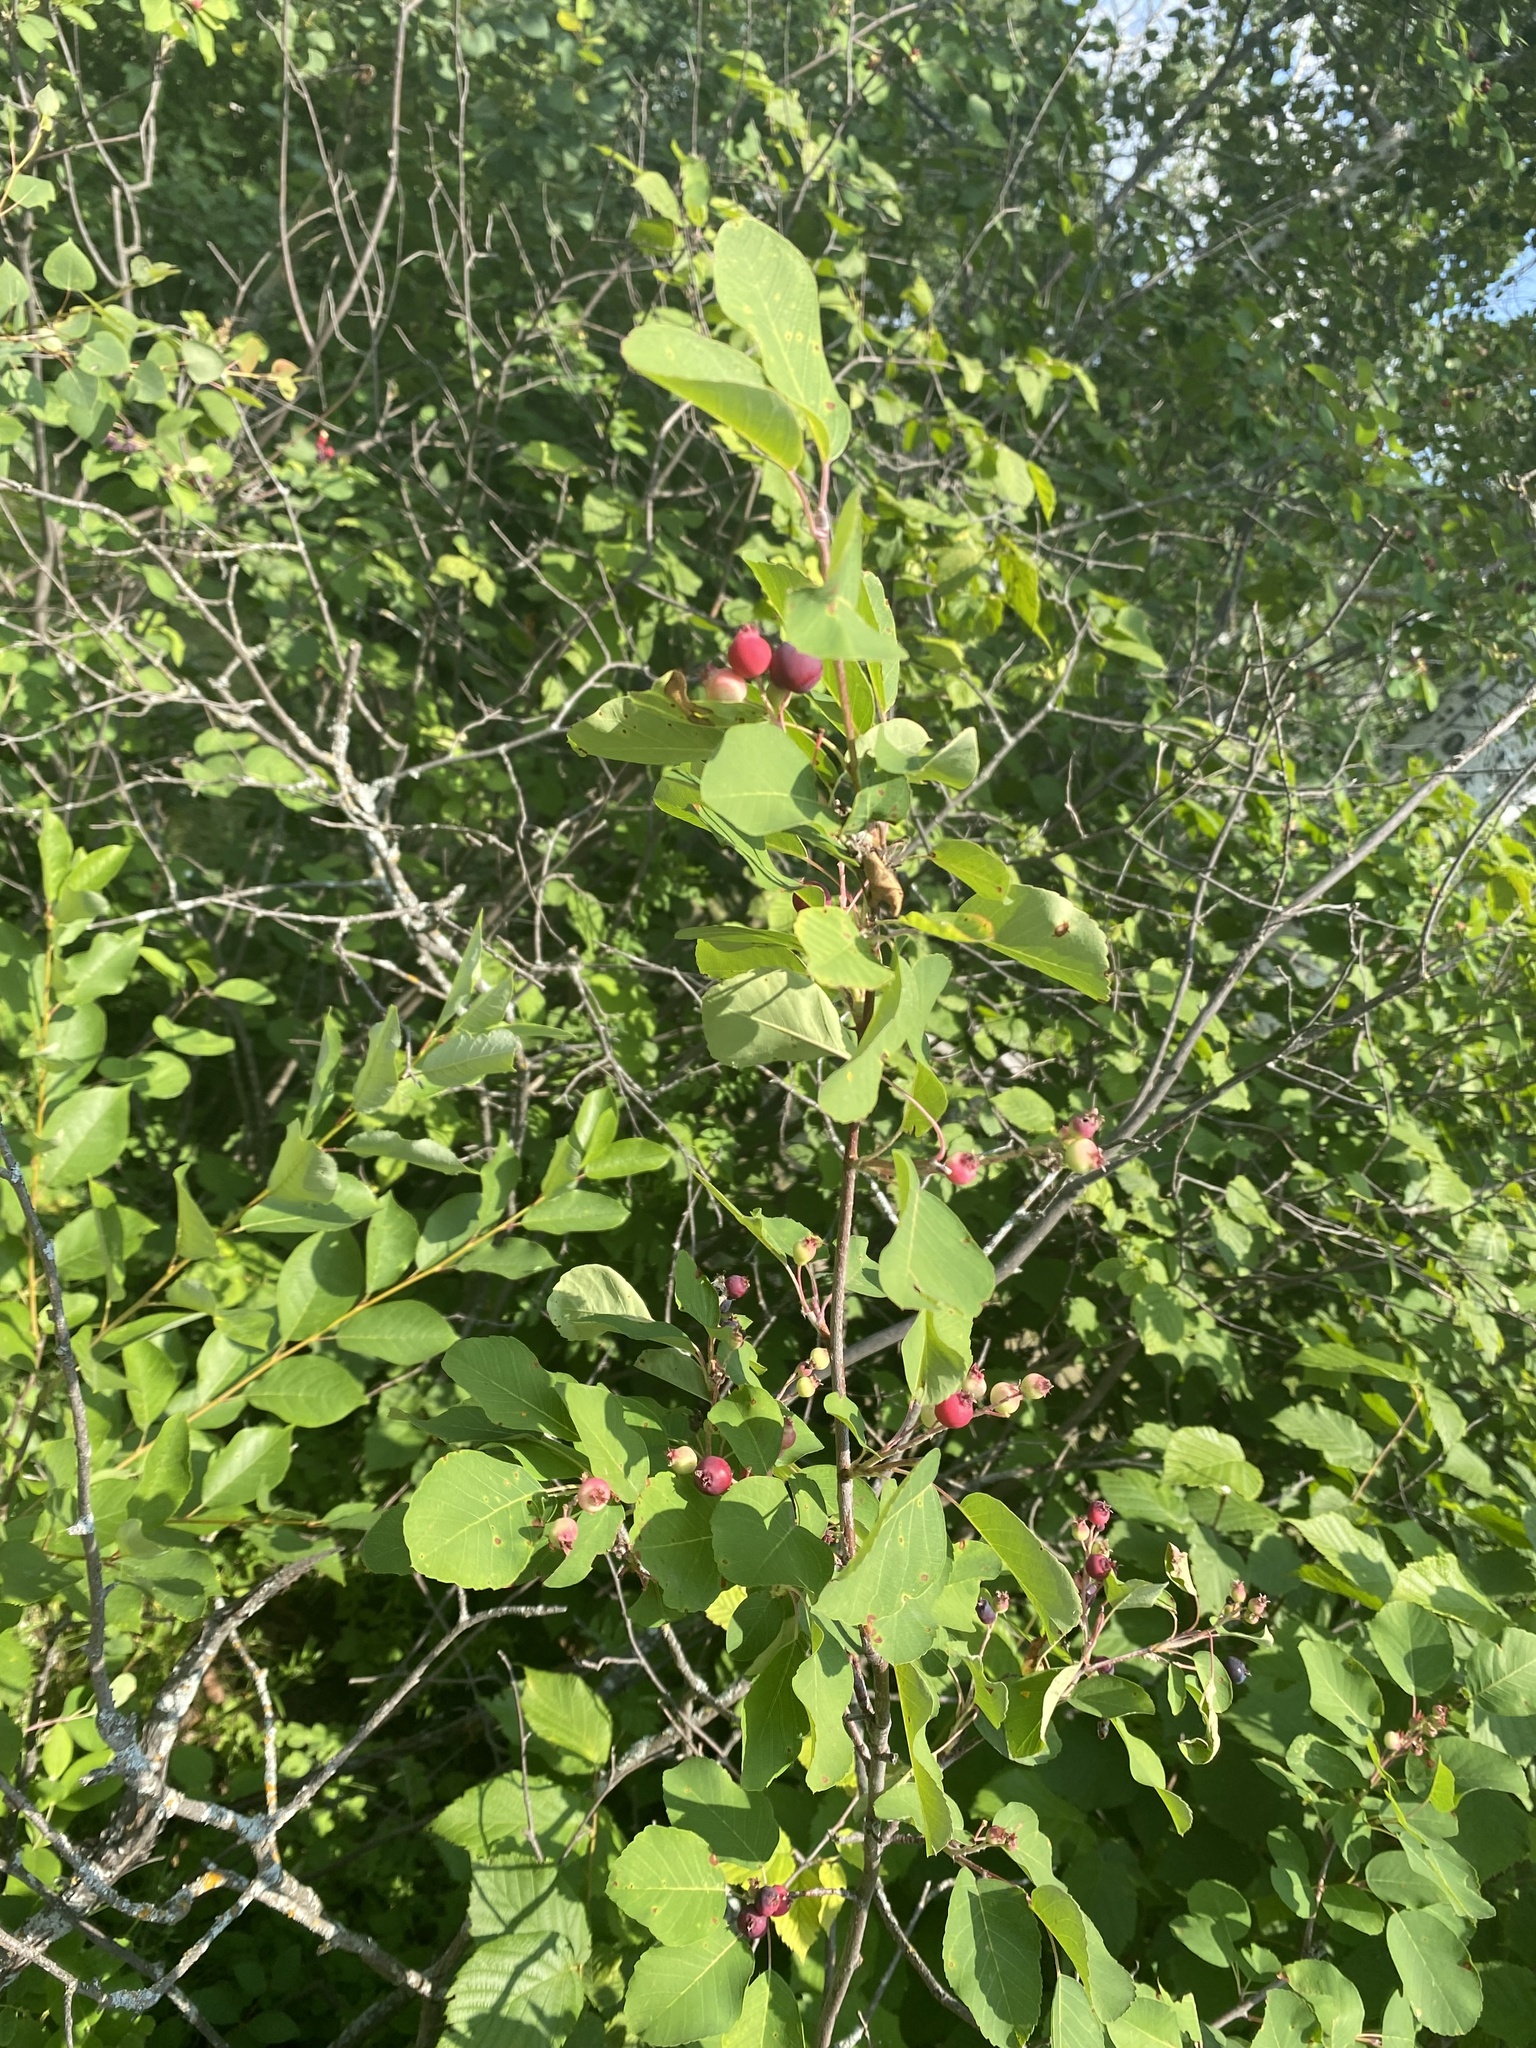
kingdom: Plantae
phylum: Tracheophyta
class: Magnoliopsida
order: Rosales
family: Rosaceae
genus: Amelanchier
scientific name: Amelanchier alnifolia
